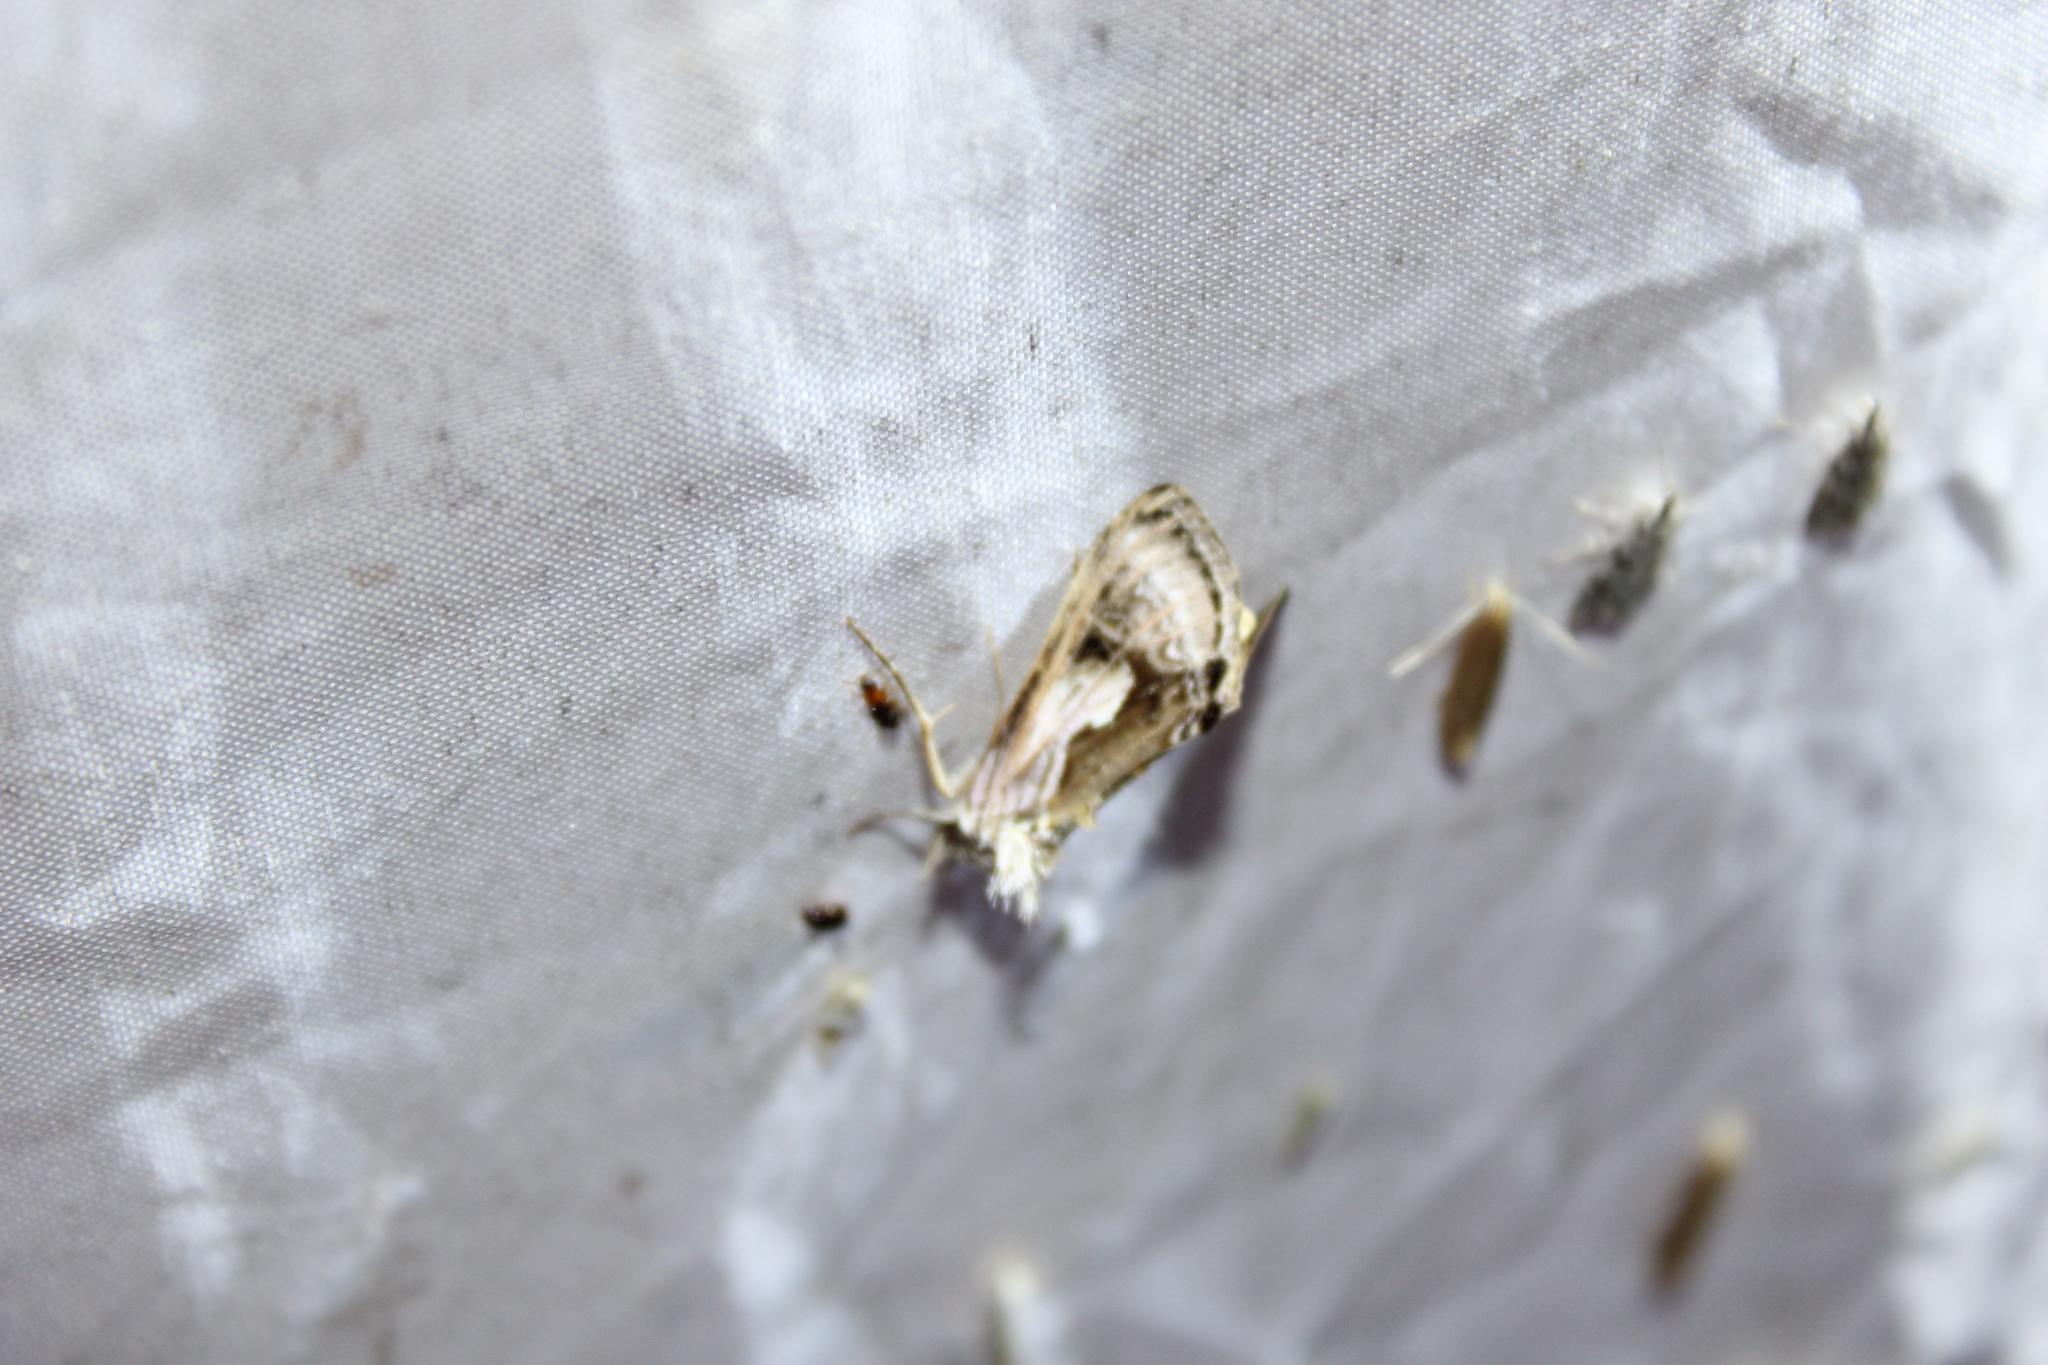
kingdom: Animalia
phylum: Arthropoda
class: Insecta
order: Lepidoptera
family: Noctuidae
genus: Chrysanympha
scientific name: Chrysanympha formosa
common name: Formosa looper moth
